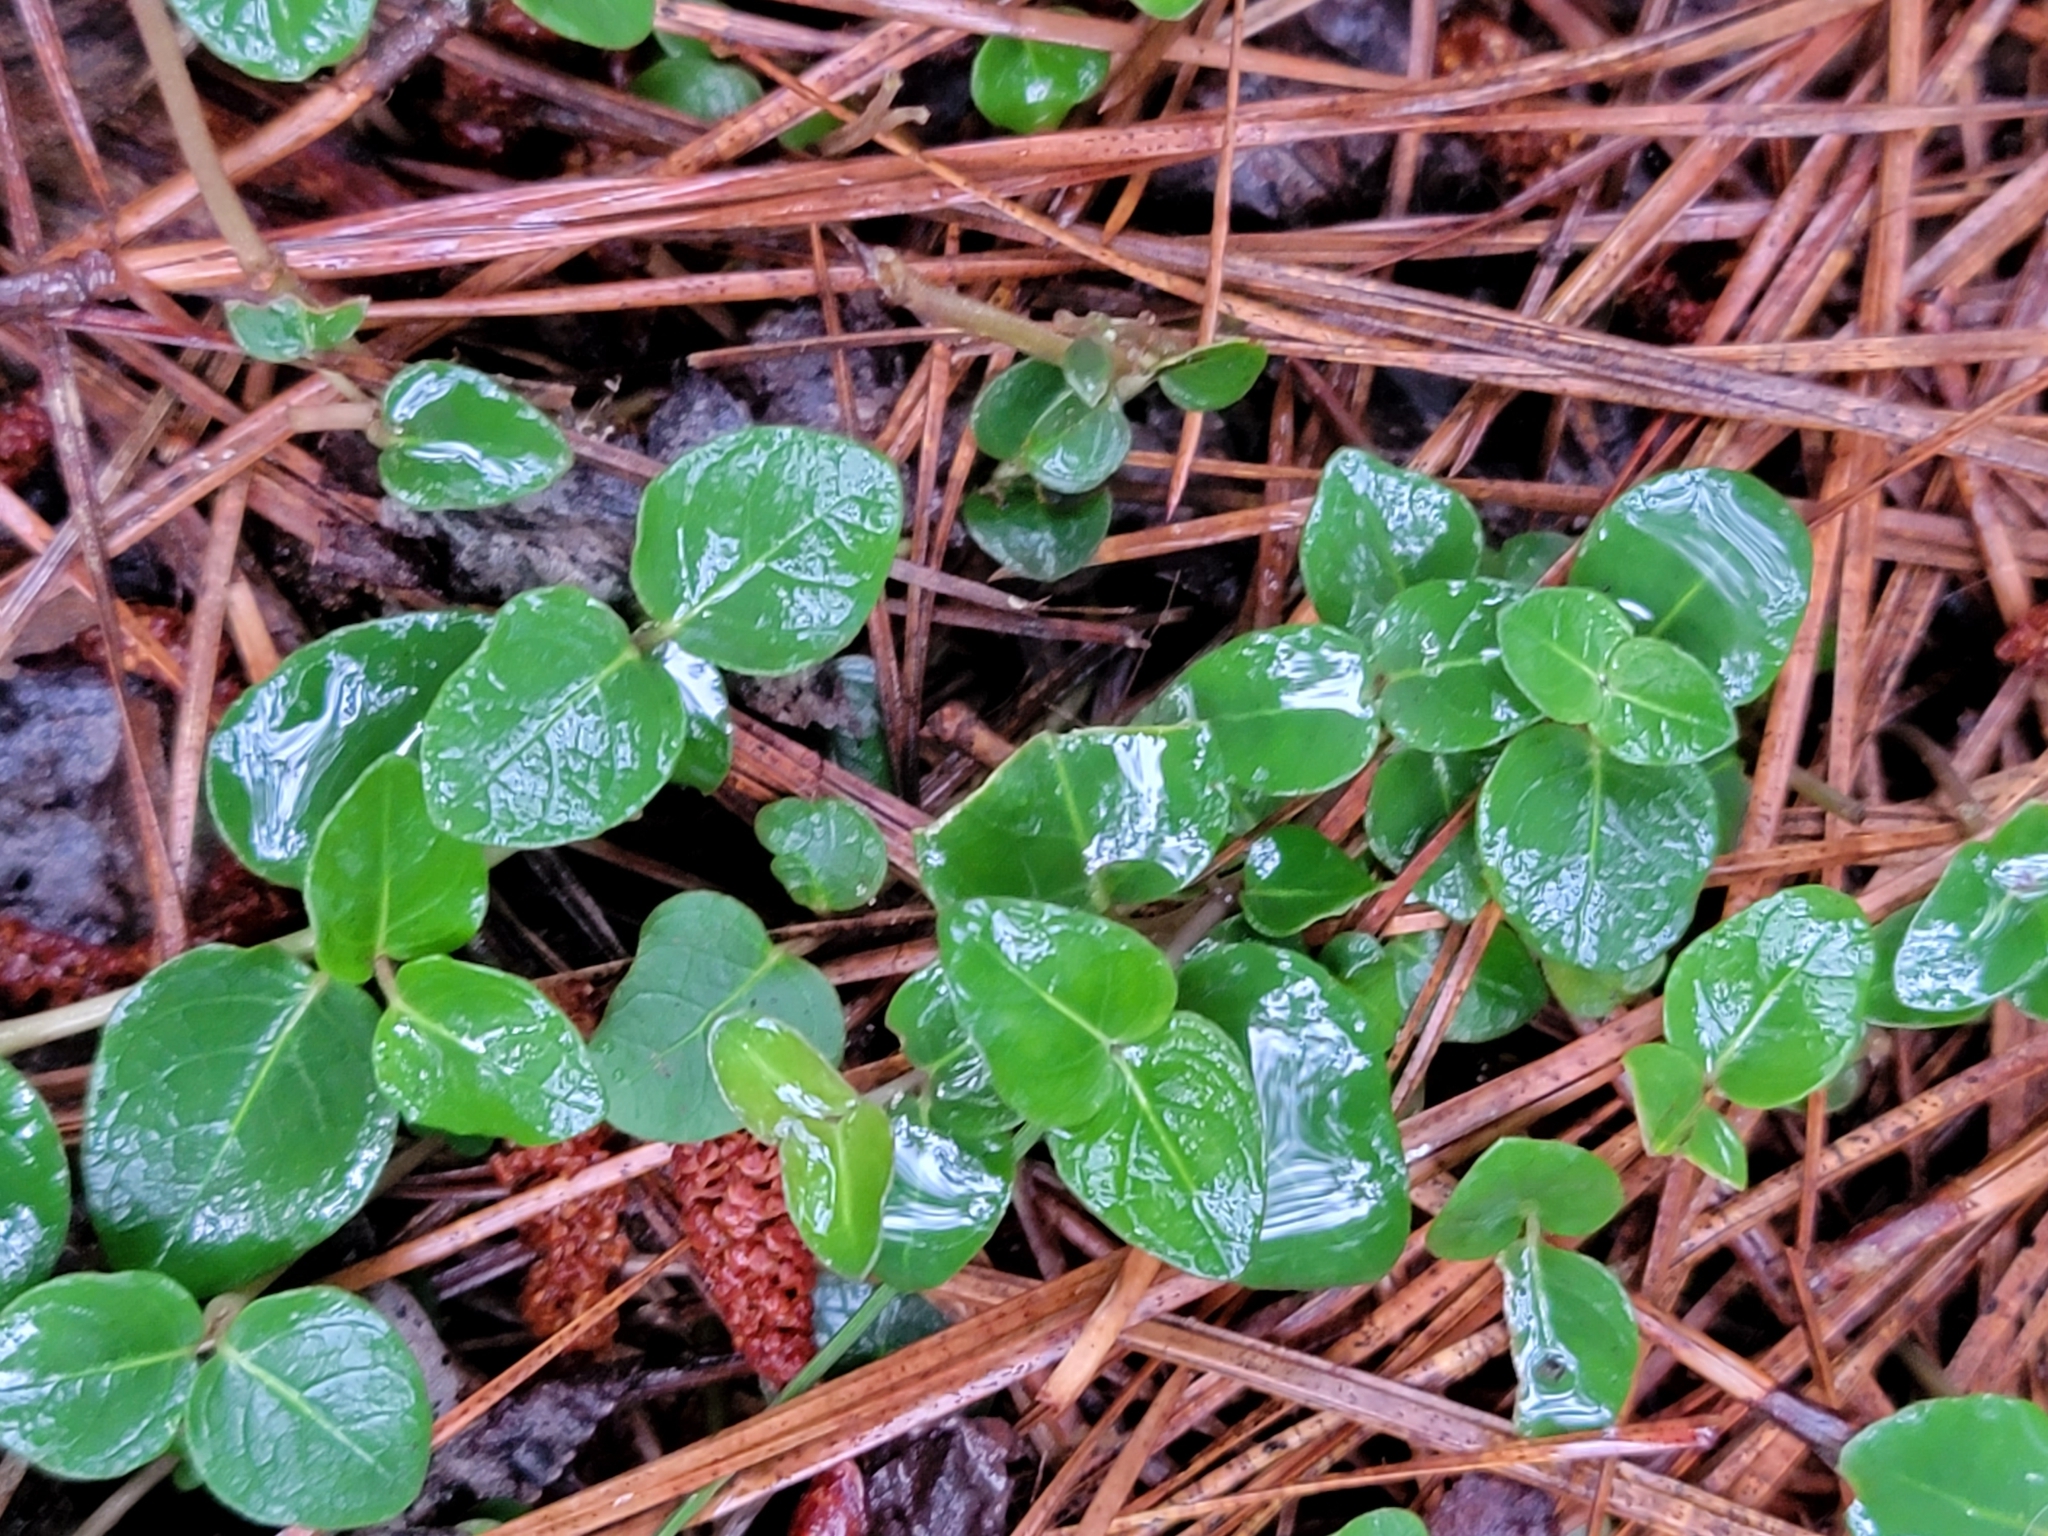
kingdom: Plantae
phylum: Tracheophyta
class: Magnoliopsida
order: Gentianales
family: Rubiaceae
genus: Mitchella
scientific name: Mitchella repens
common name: Partridge-berry
